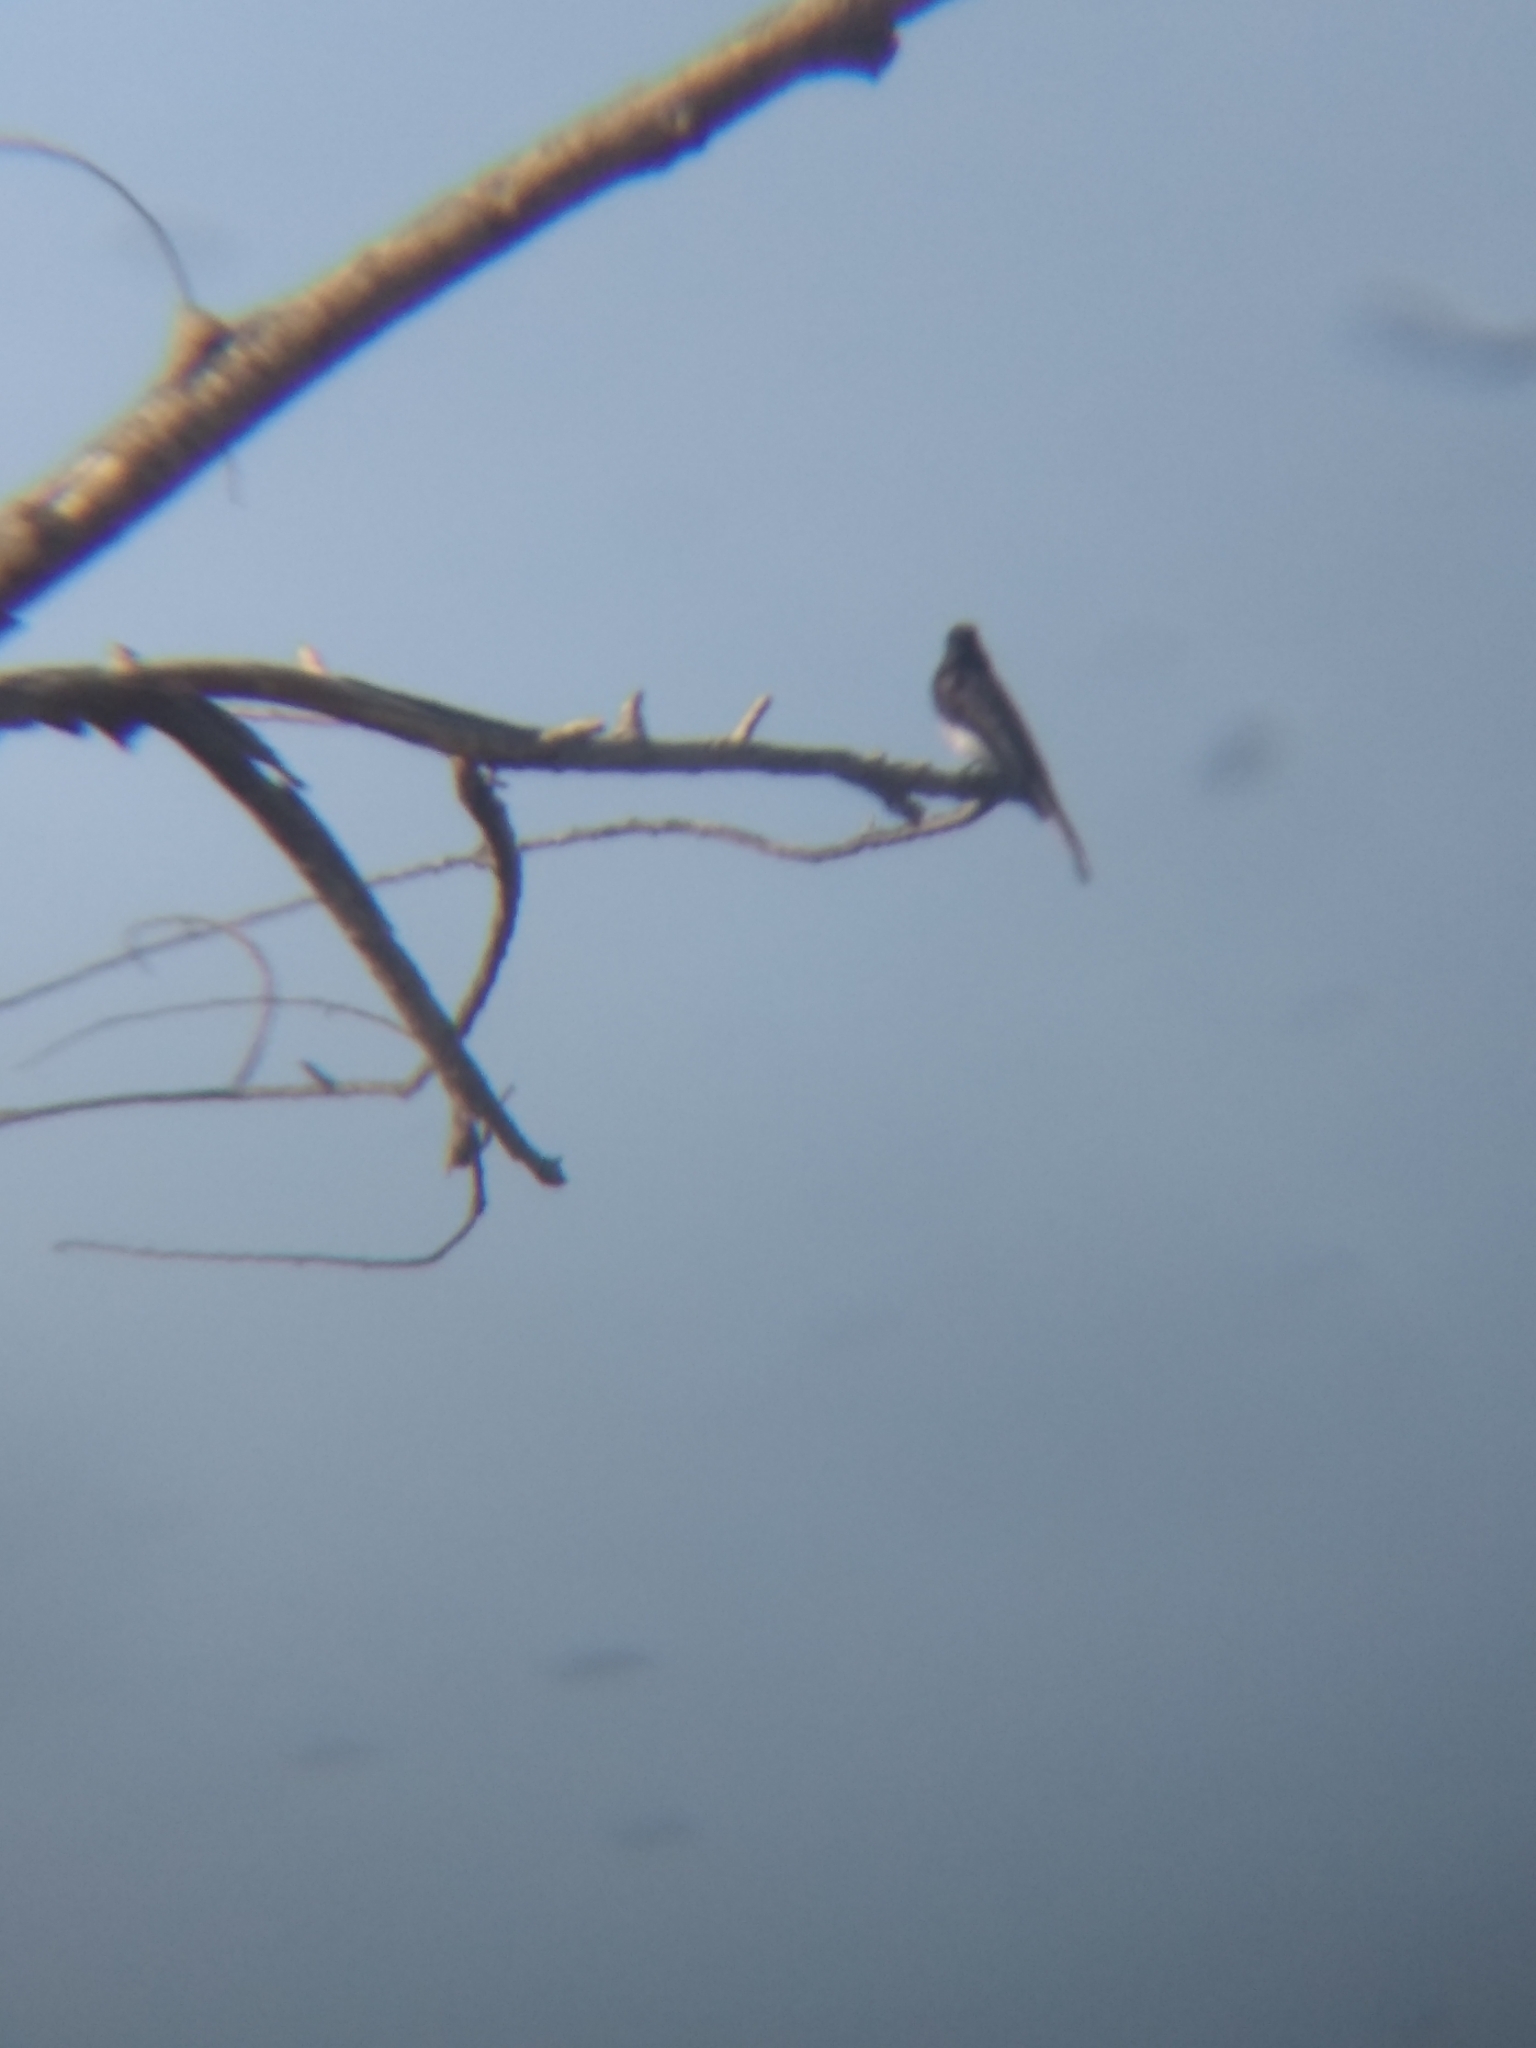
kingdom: Animalia
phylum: Chordata
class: Aves
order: Passeriformes
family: Tyrannidae
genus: Sayornis
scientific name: Sayornis nigricans
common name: Black phoebe
